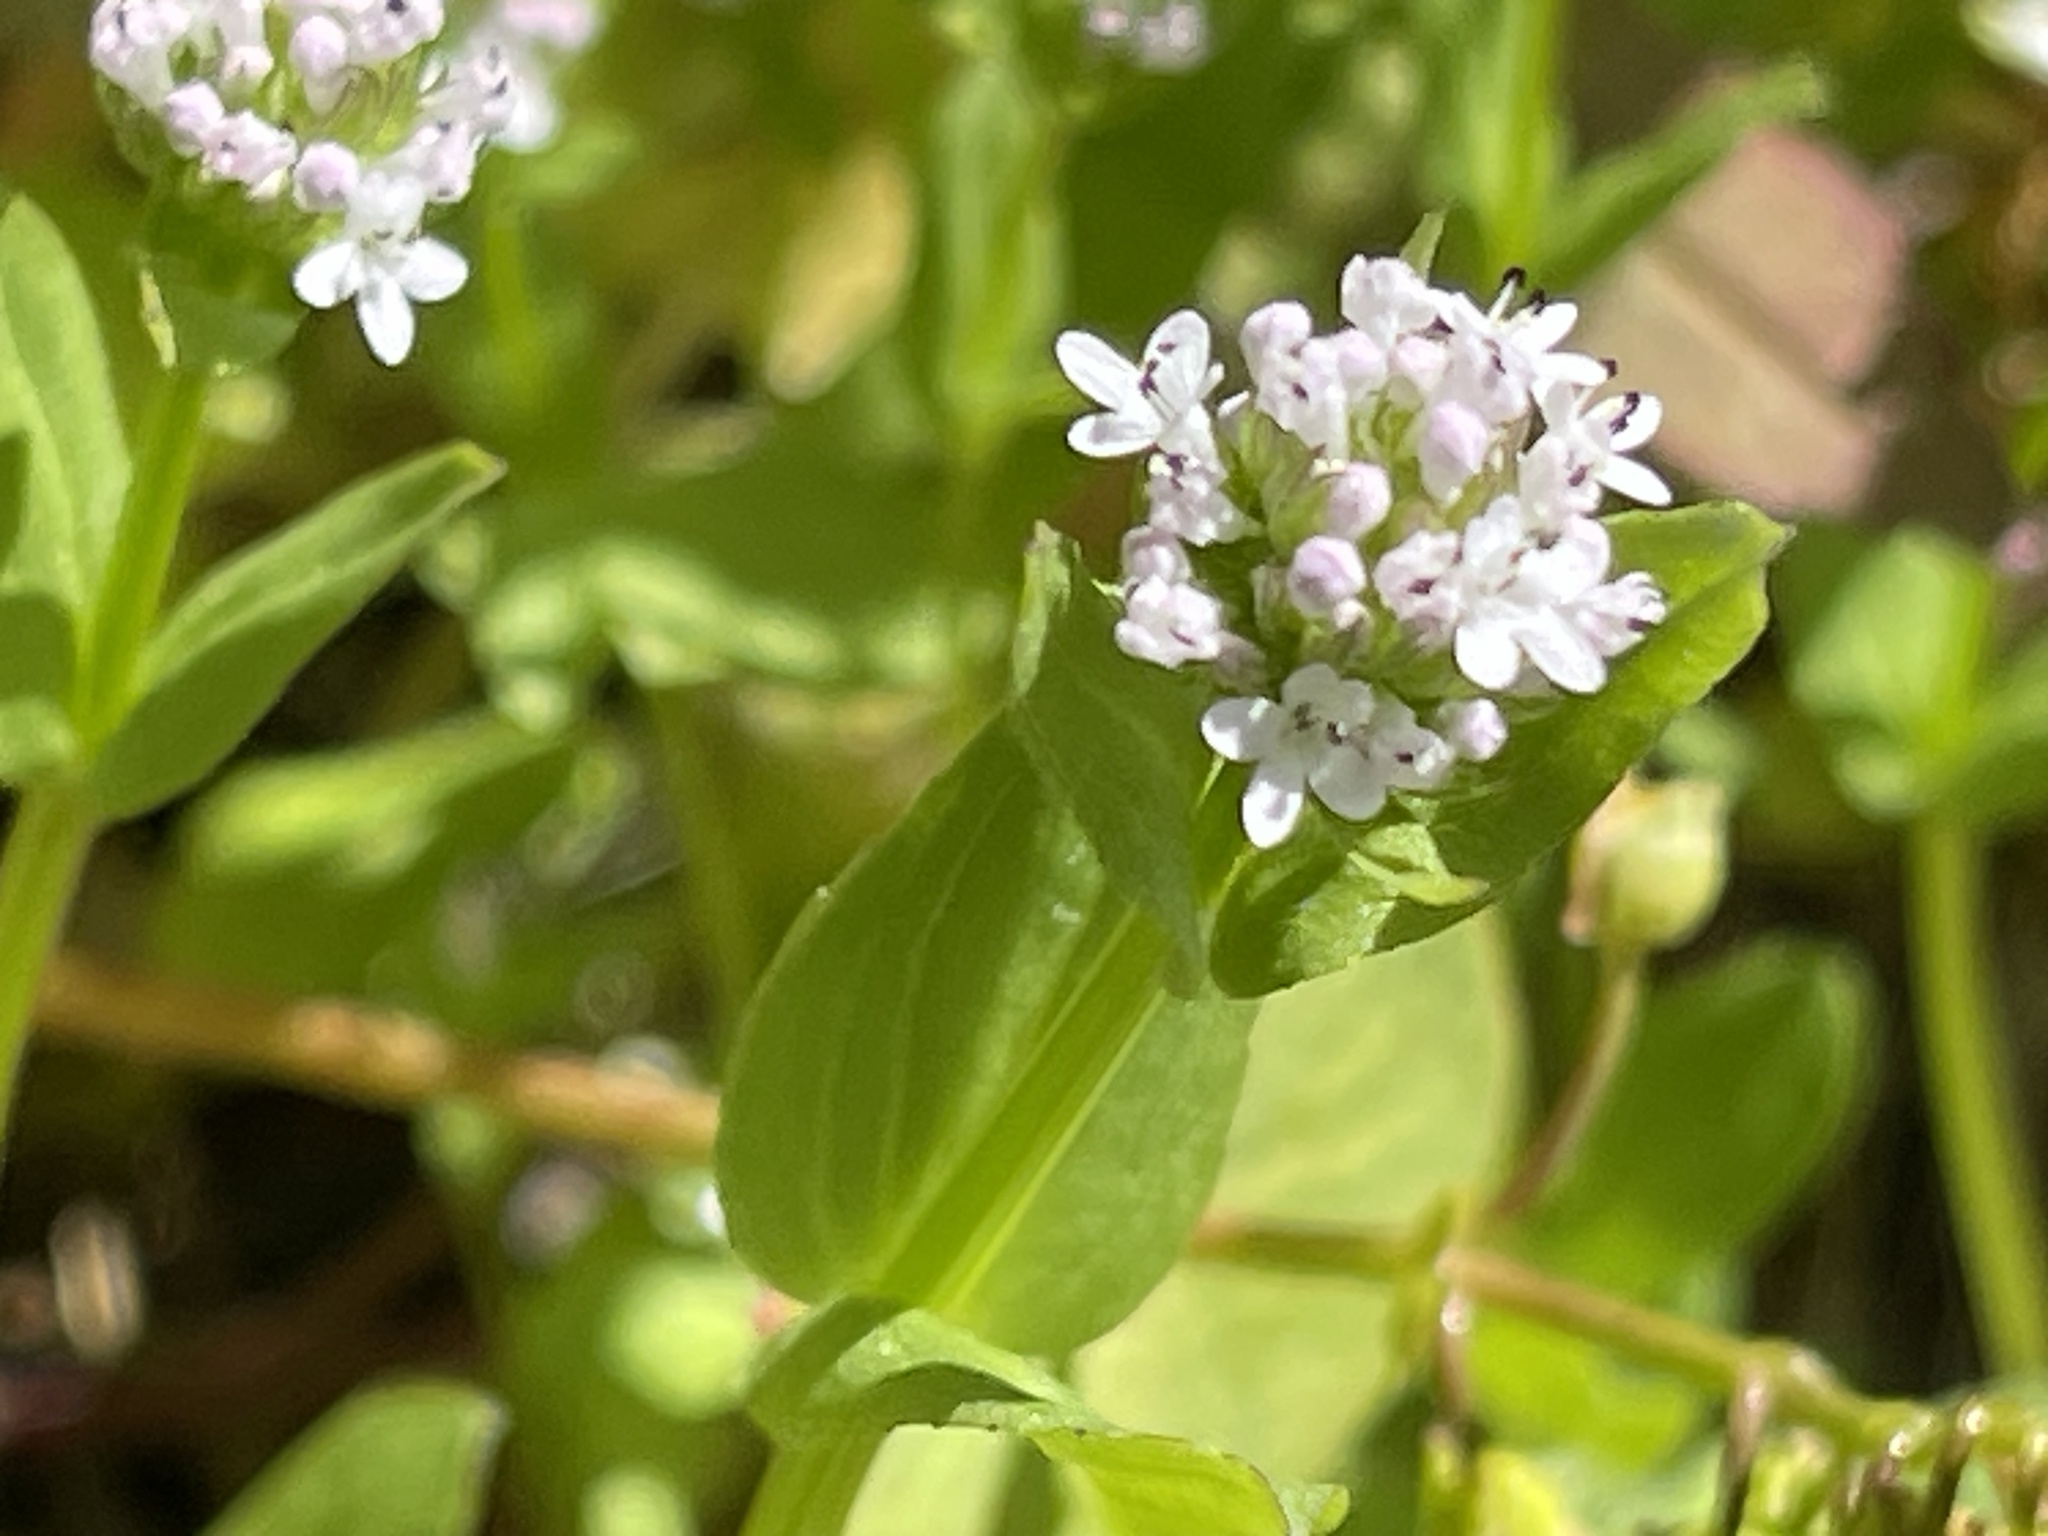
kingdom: Plantae
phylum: Tracheophyta
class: Magnoliopsida
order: Dipsacales
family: Caprifoliaceae
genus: Plectritis
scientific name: Plectritis macroptera
